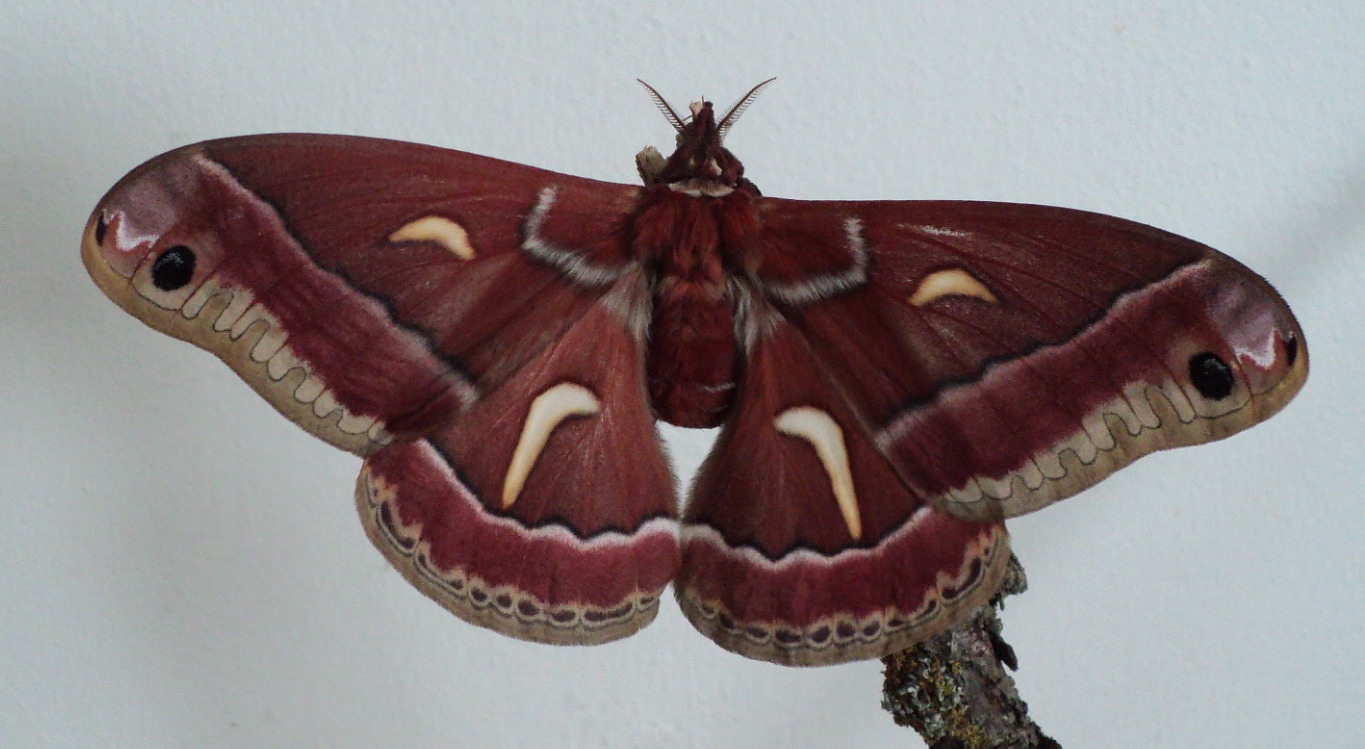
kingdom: Animalia
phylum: Arthropoda
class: Insecta
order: Lepidoptera
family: Saturniidae
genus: Hyalophora
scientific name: Hyalophora euryalus
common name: Ceanothus silkmoth
